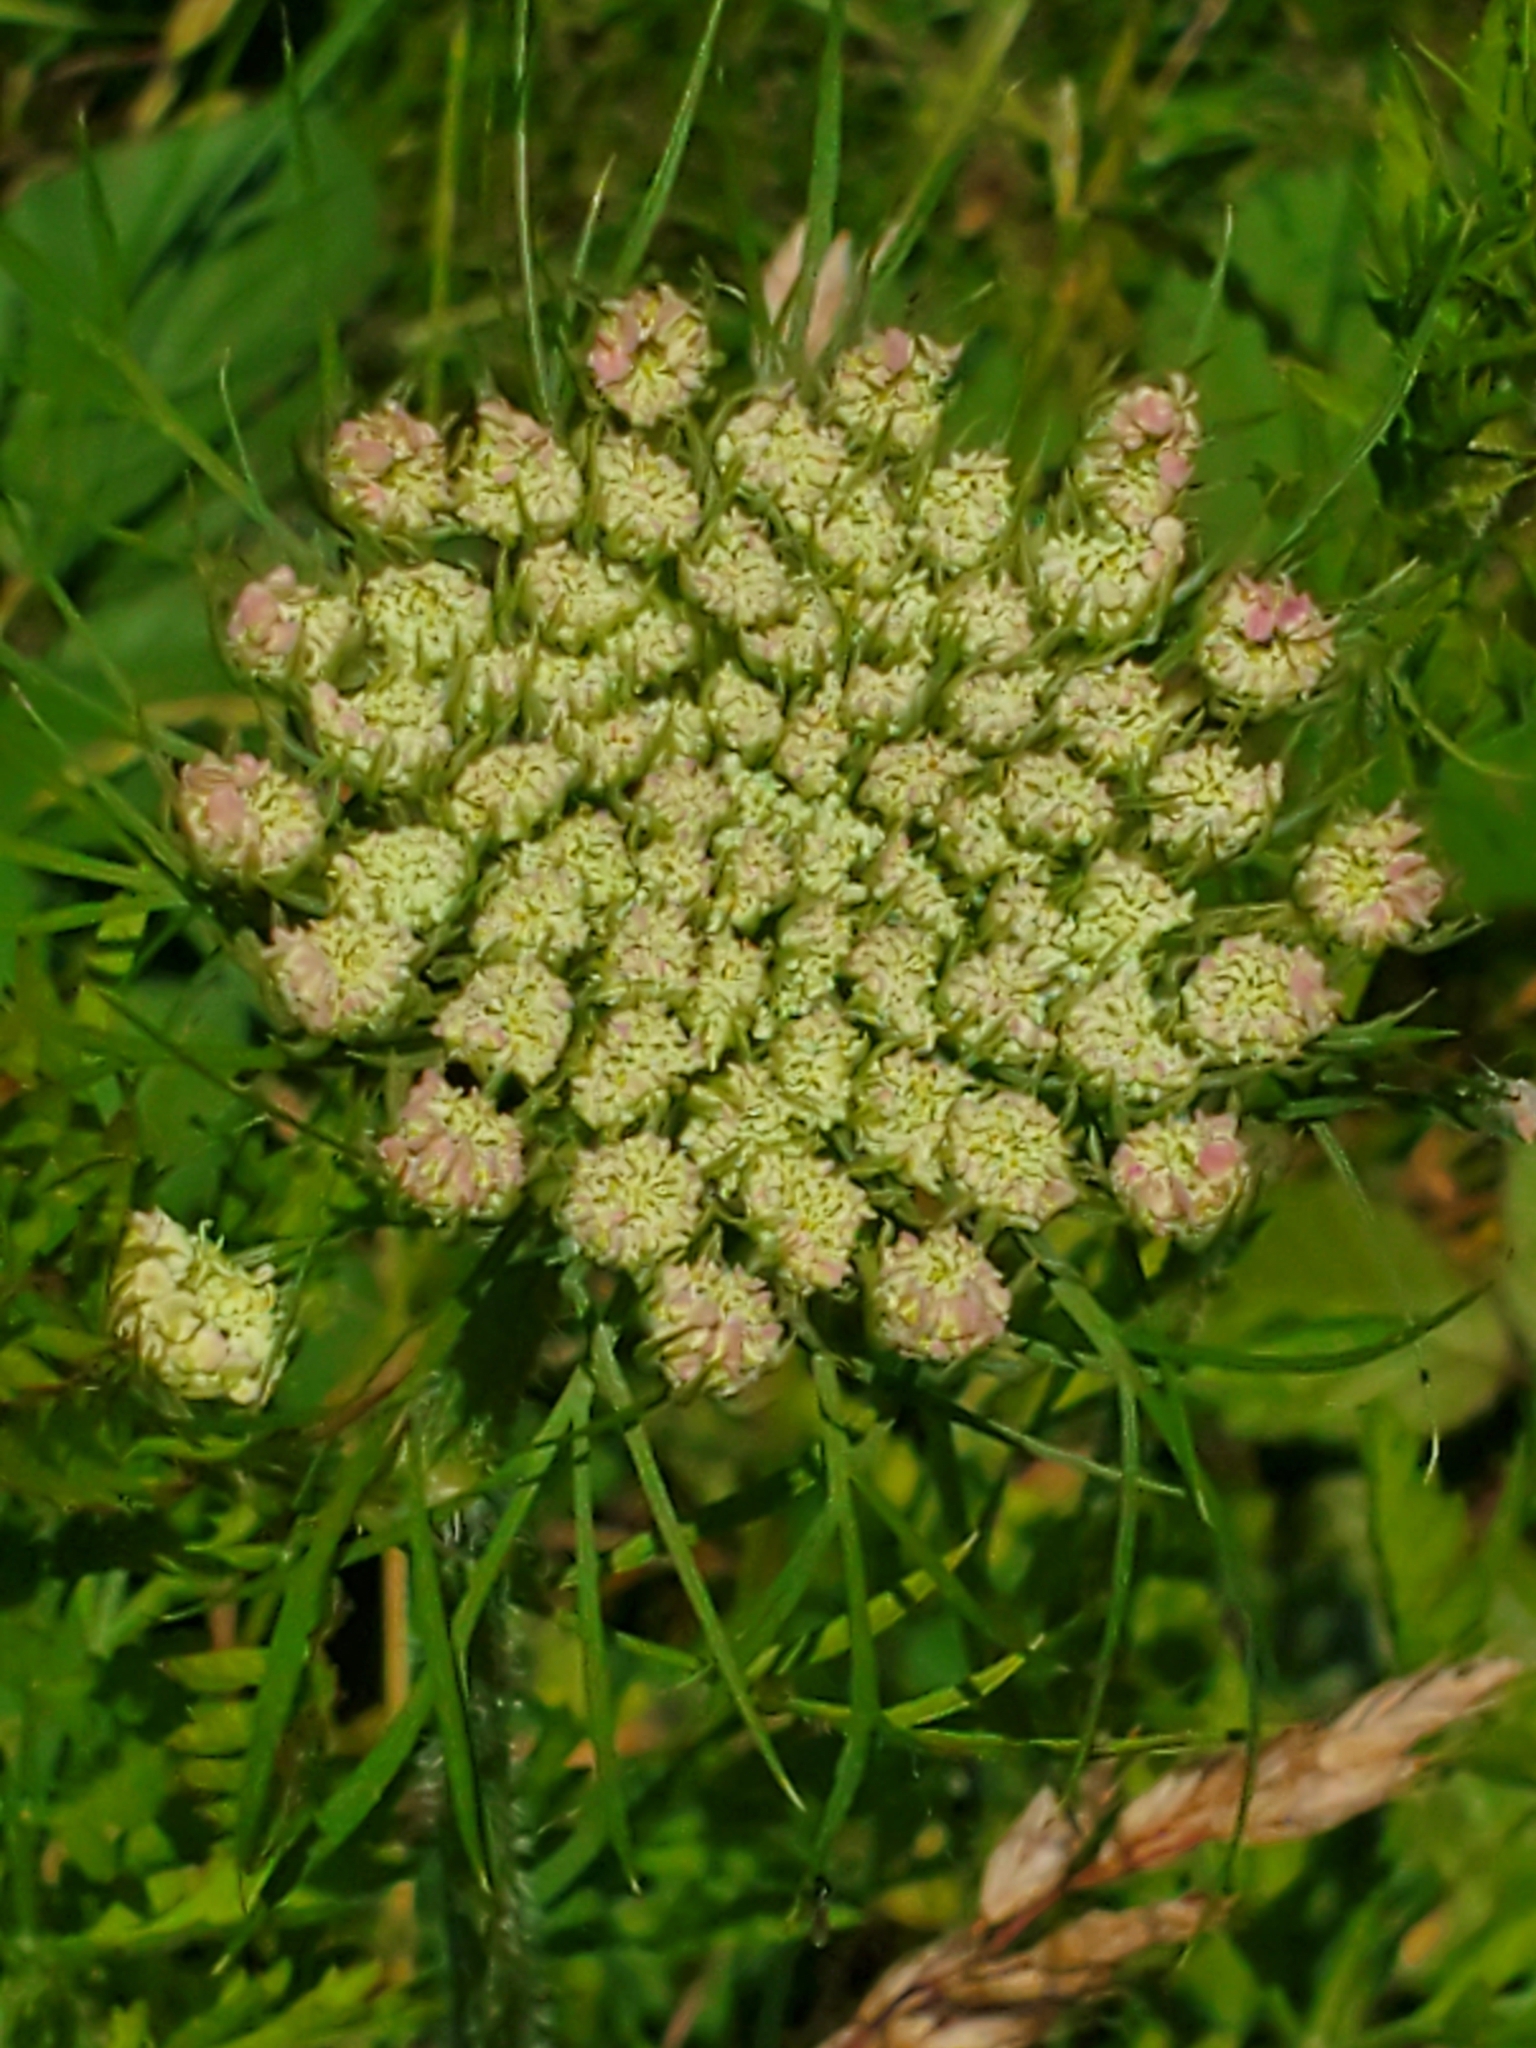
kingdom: Plantae
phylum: Tracheophyta
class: Magnoliopsida
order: Apiales
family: Apiaceae
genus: Daucus
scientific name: Daucus carota
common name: Wild carrot
